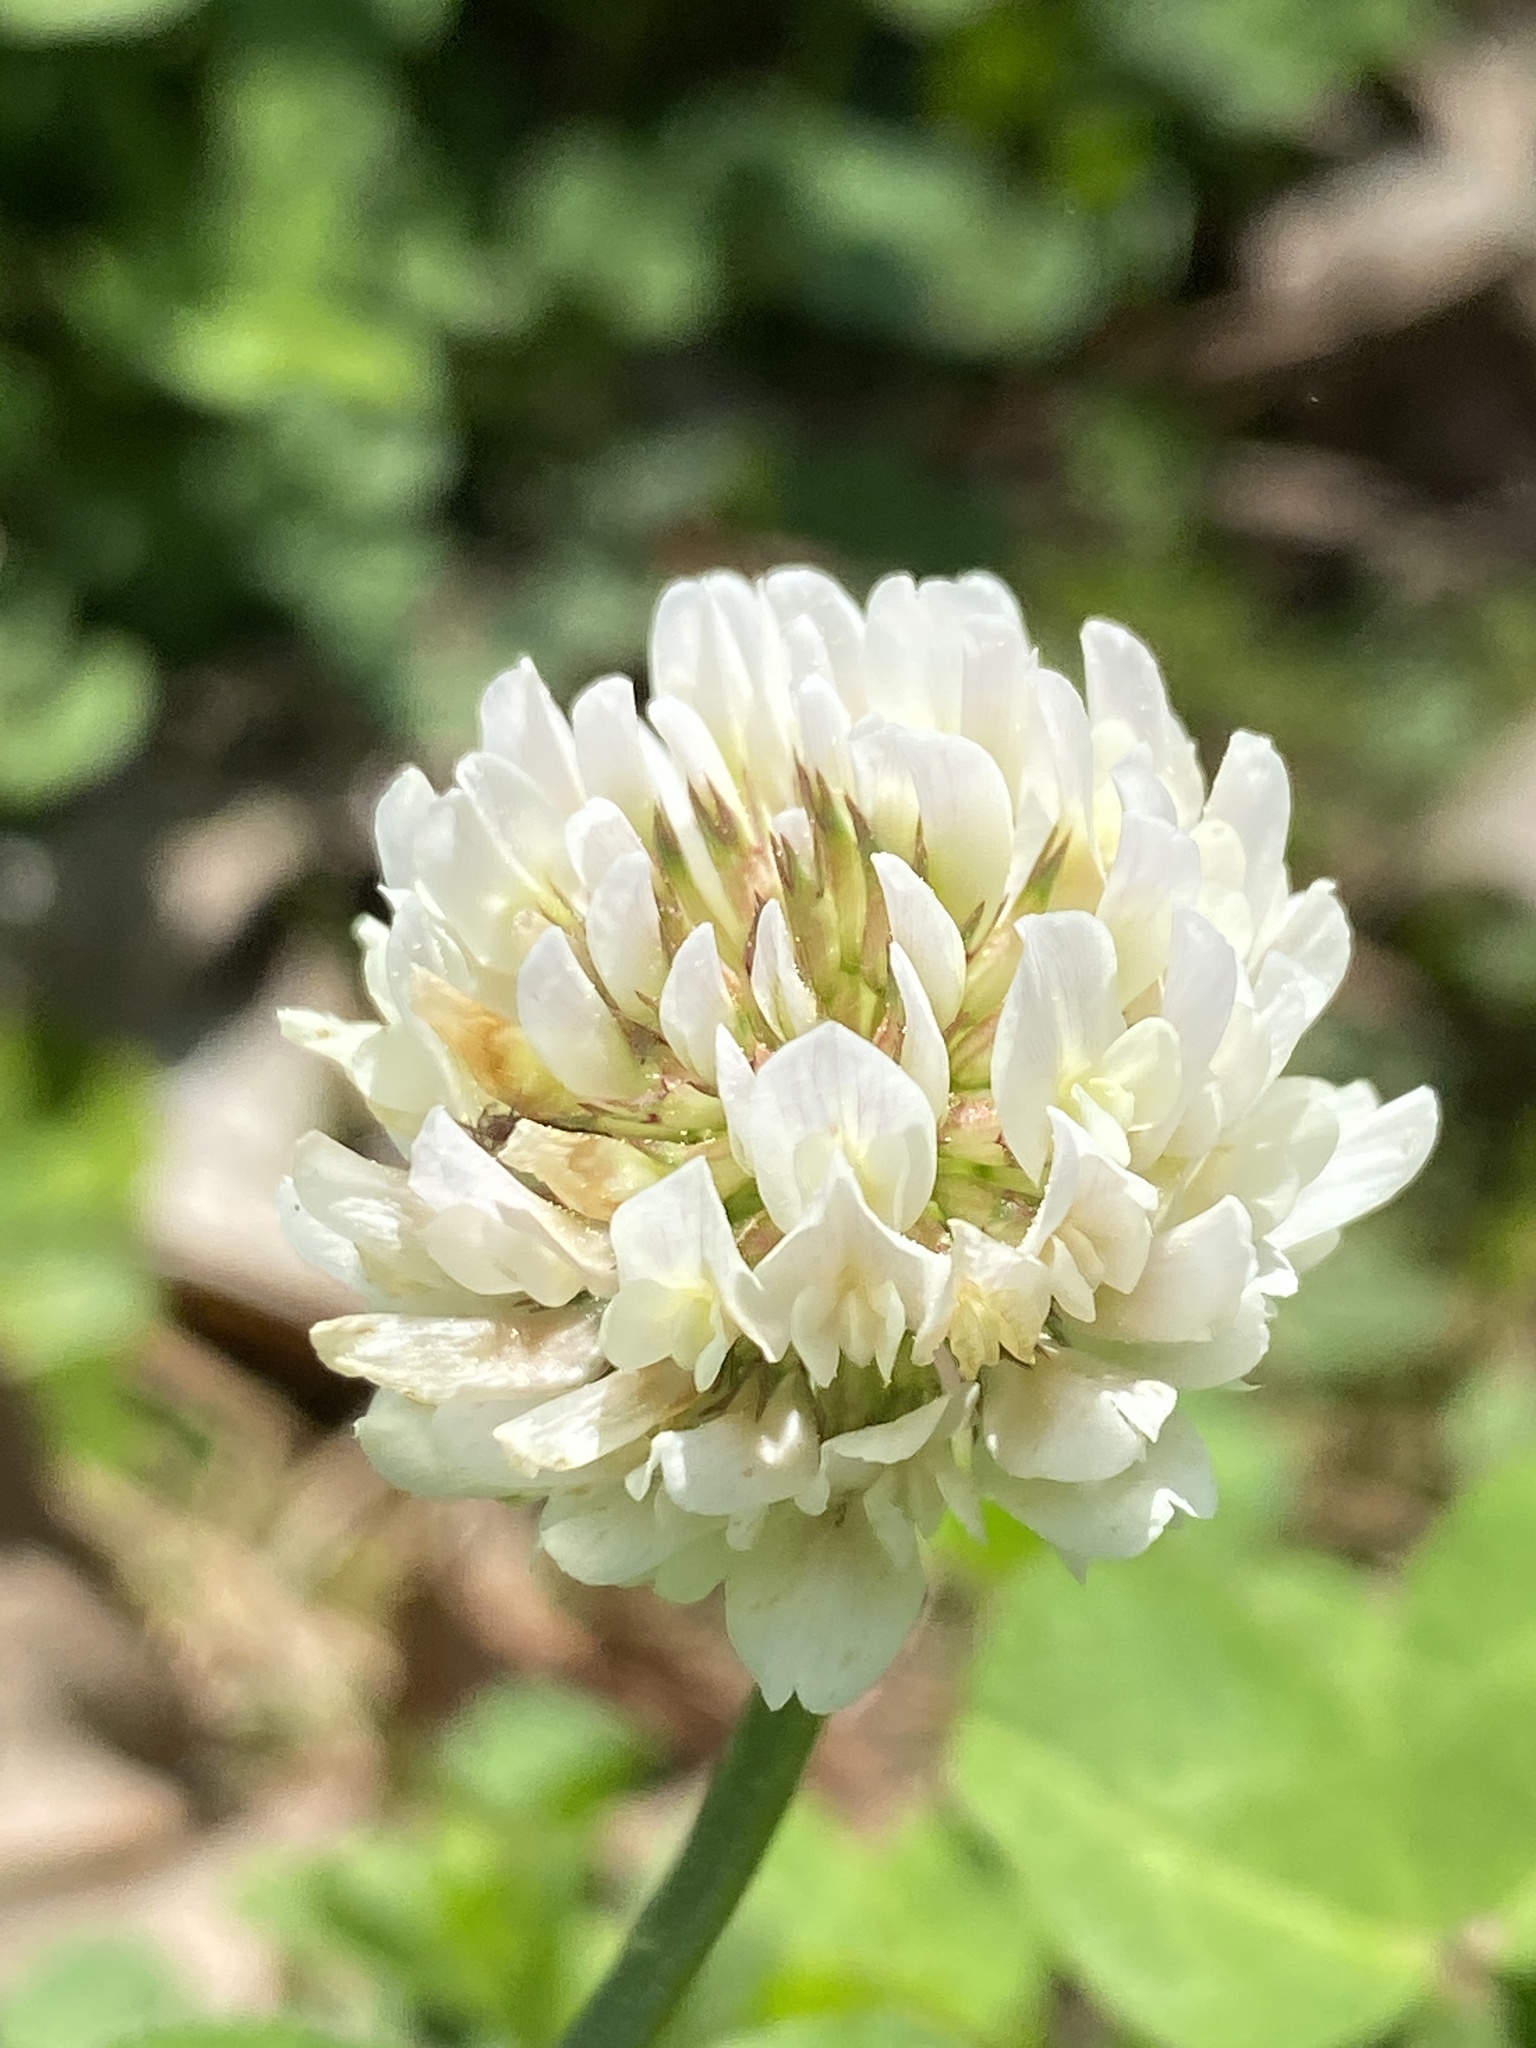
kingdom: Plantae
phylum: Tracheophyta
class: Magnoliopsida
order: Fabales
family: Fabaceae
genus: Trifolium
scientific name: Trifolium repens
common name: White clover
